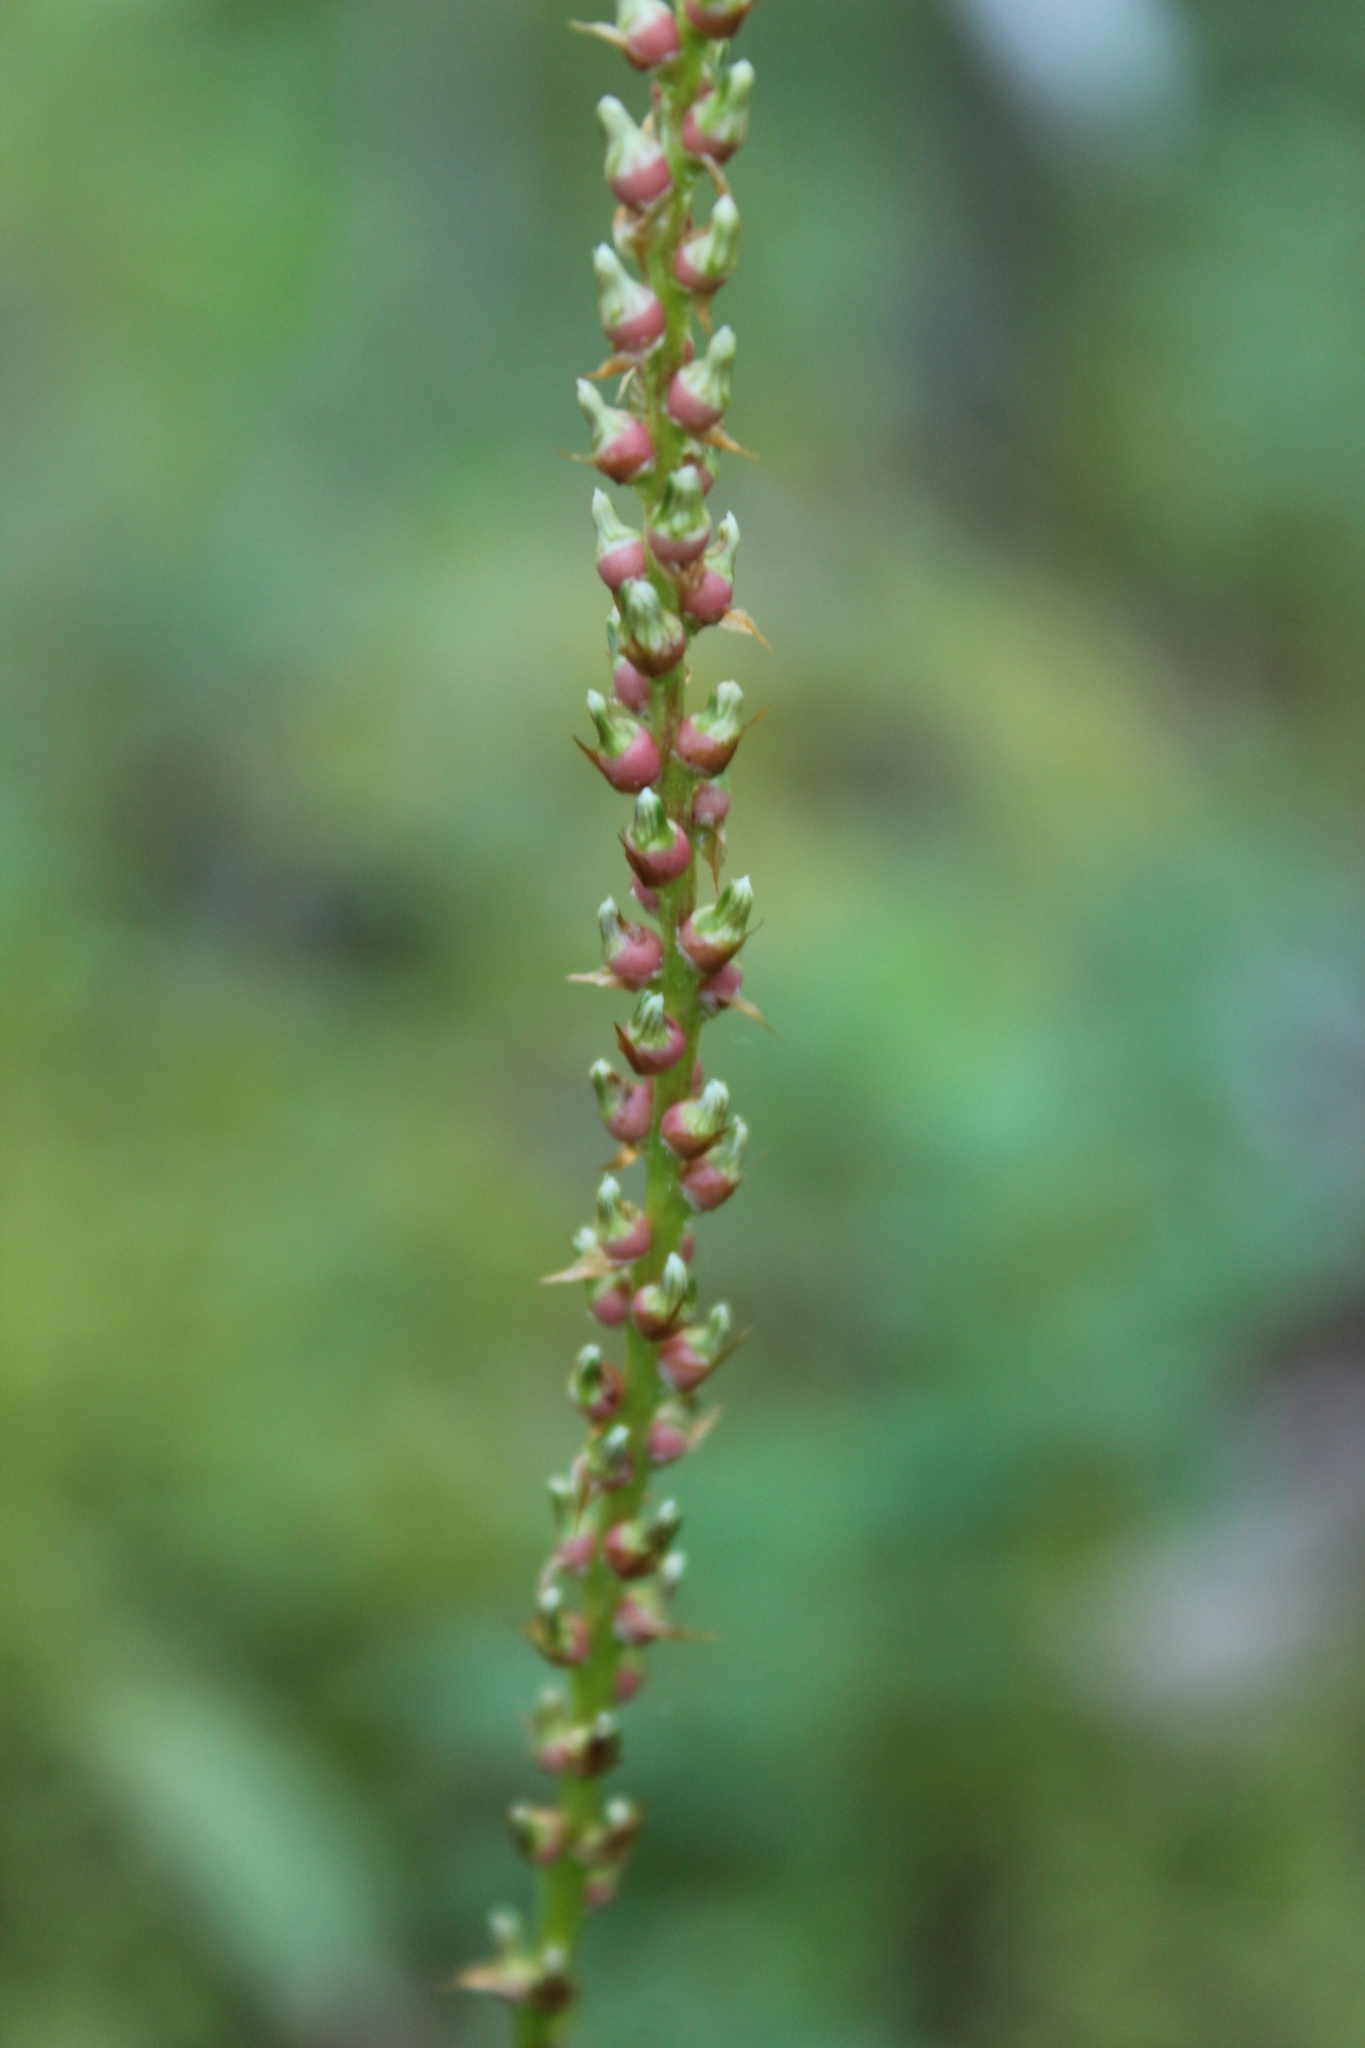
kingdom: Plantae
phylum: Tracheophyta
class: Magnoliopsida
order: Caryophyllales
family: Polygonaceae
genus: Bistorta
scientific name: Bistorta vivipara
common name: Alpine bistort
